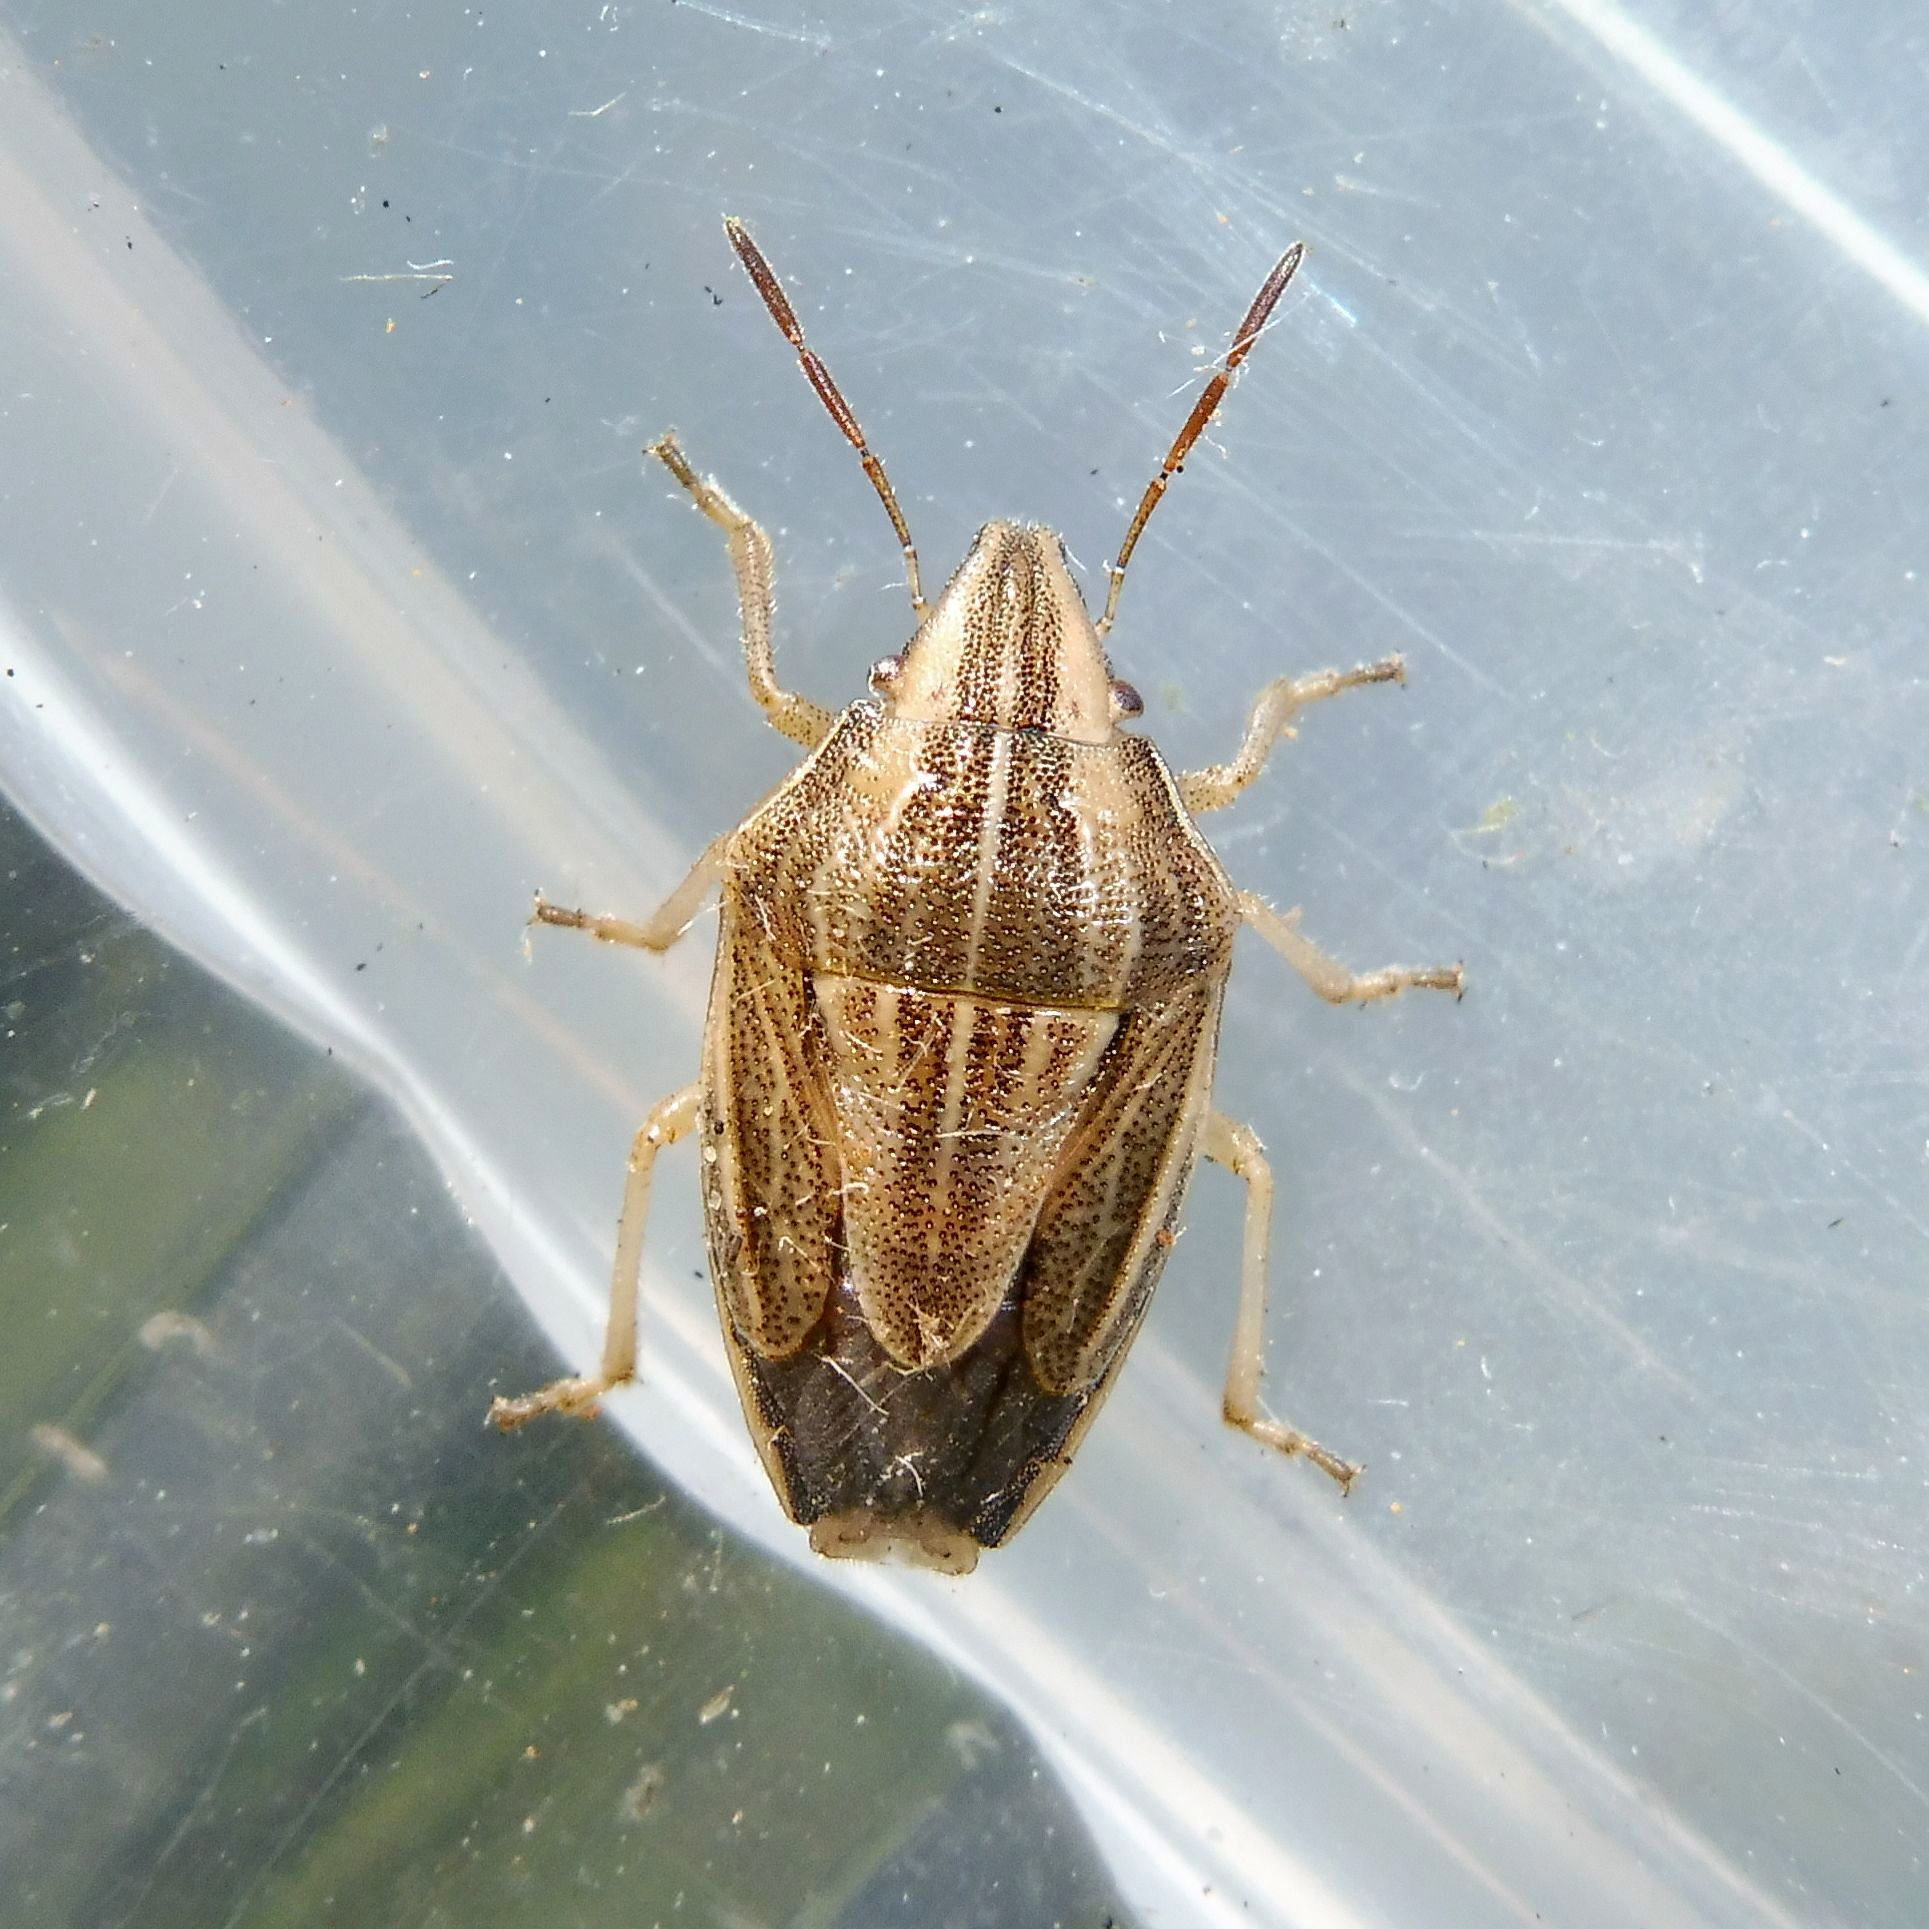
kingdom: Animalia
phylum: Arthropoda
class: Insecta
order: Hemiptera
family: Pentatomidae
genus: Aelia
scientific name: Aelia acuminata
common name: Bishop's mitre
